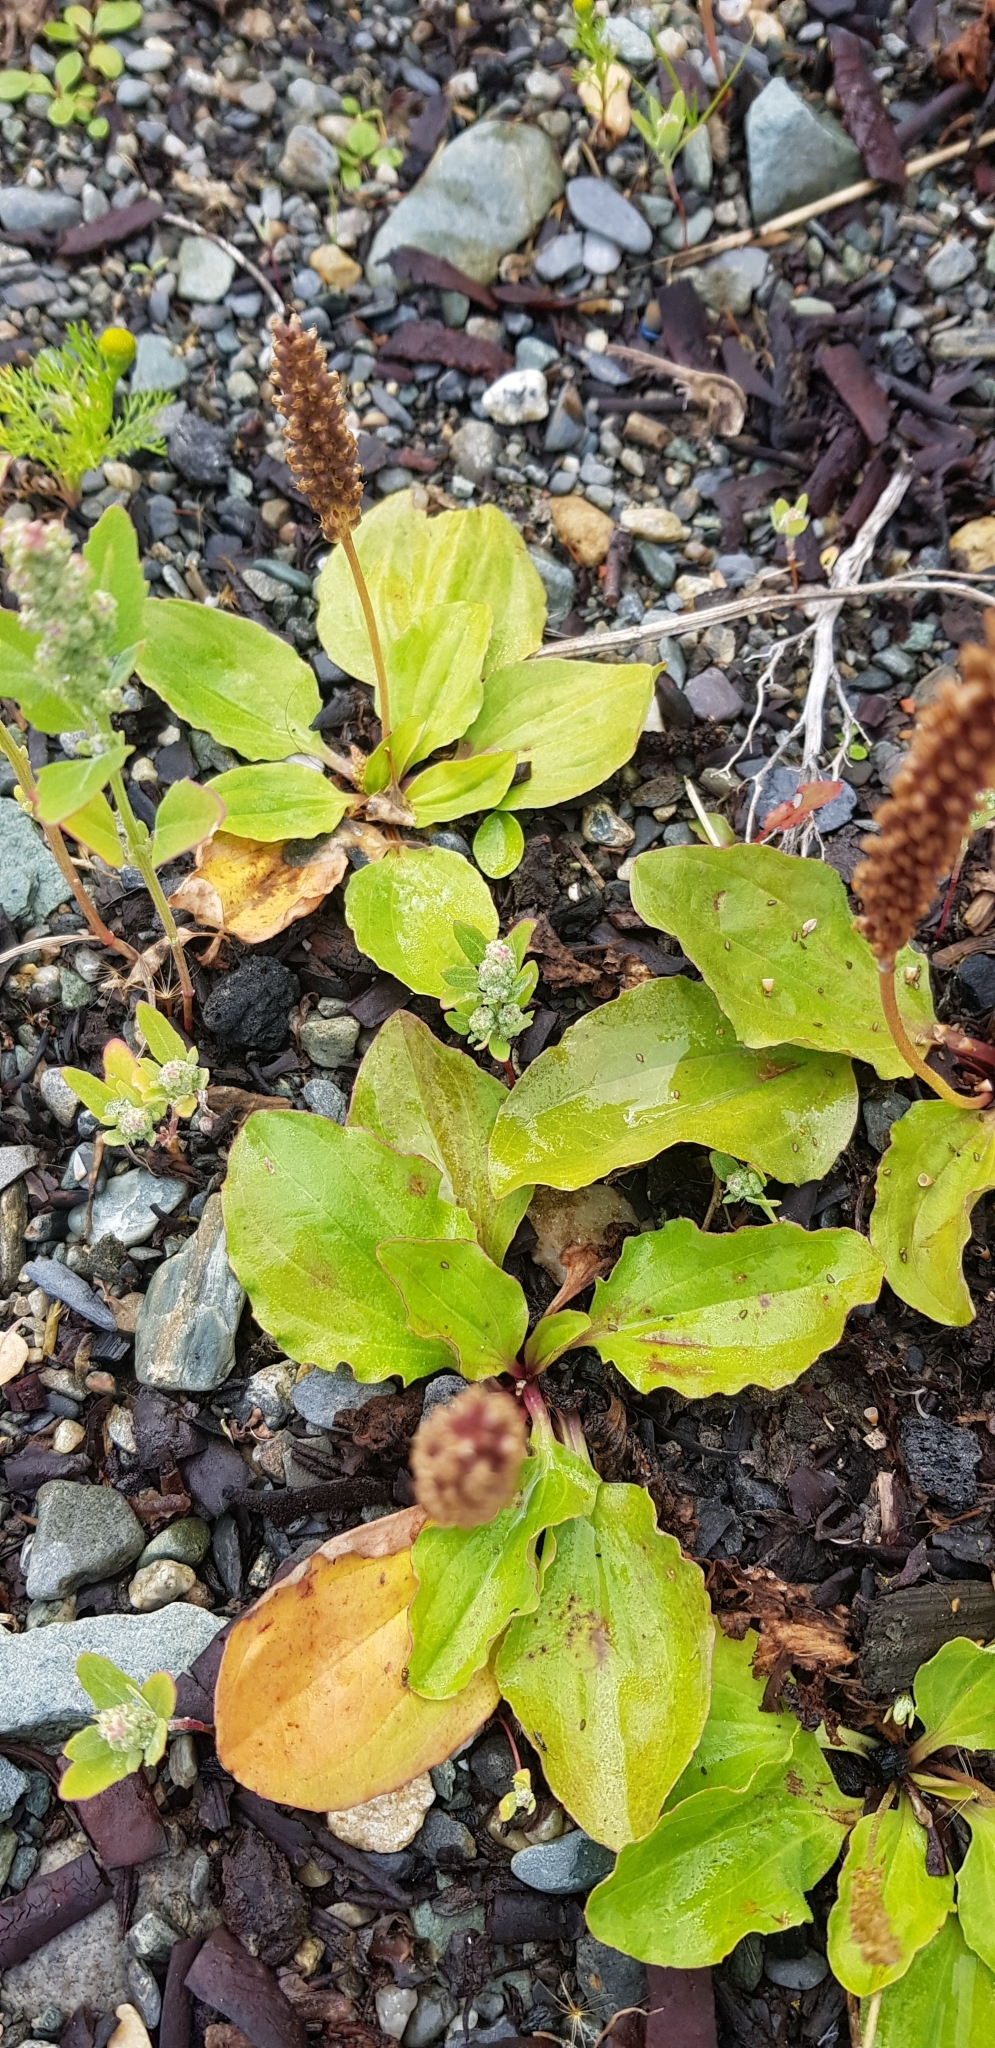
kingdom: Plantae
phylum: Tracheophyta
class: Magnoliopsida
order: Lamiales
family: Plantaginaceae
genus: Plantago
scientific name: Plantago major
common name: Common plantain
